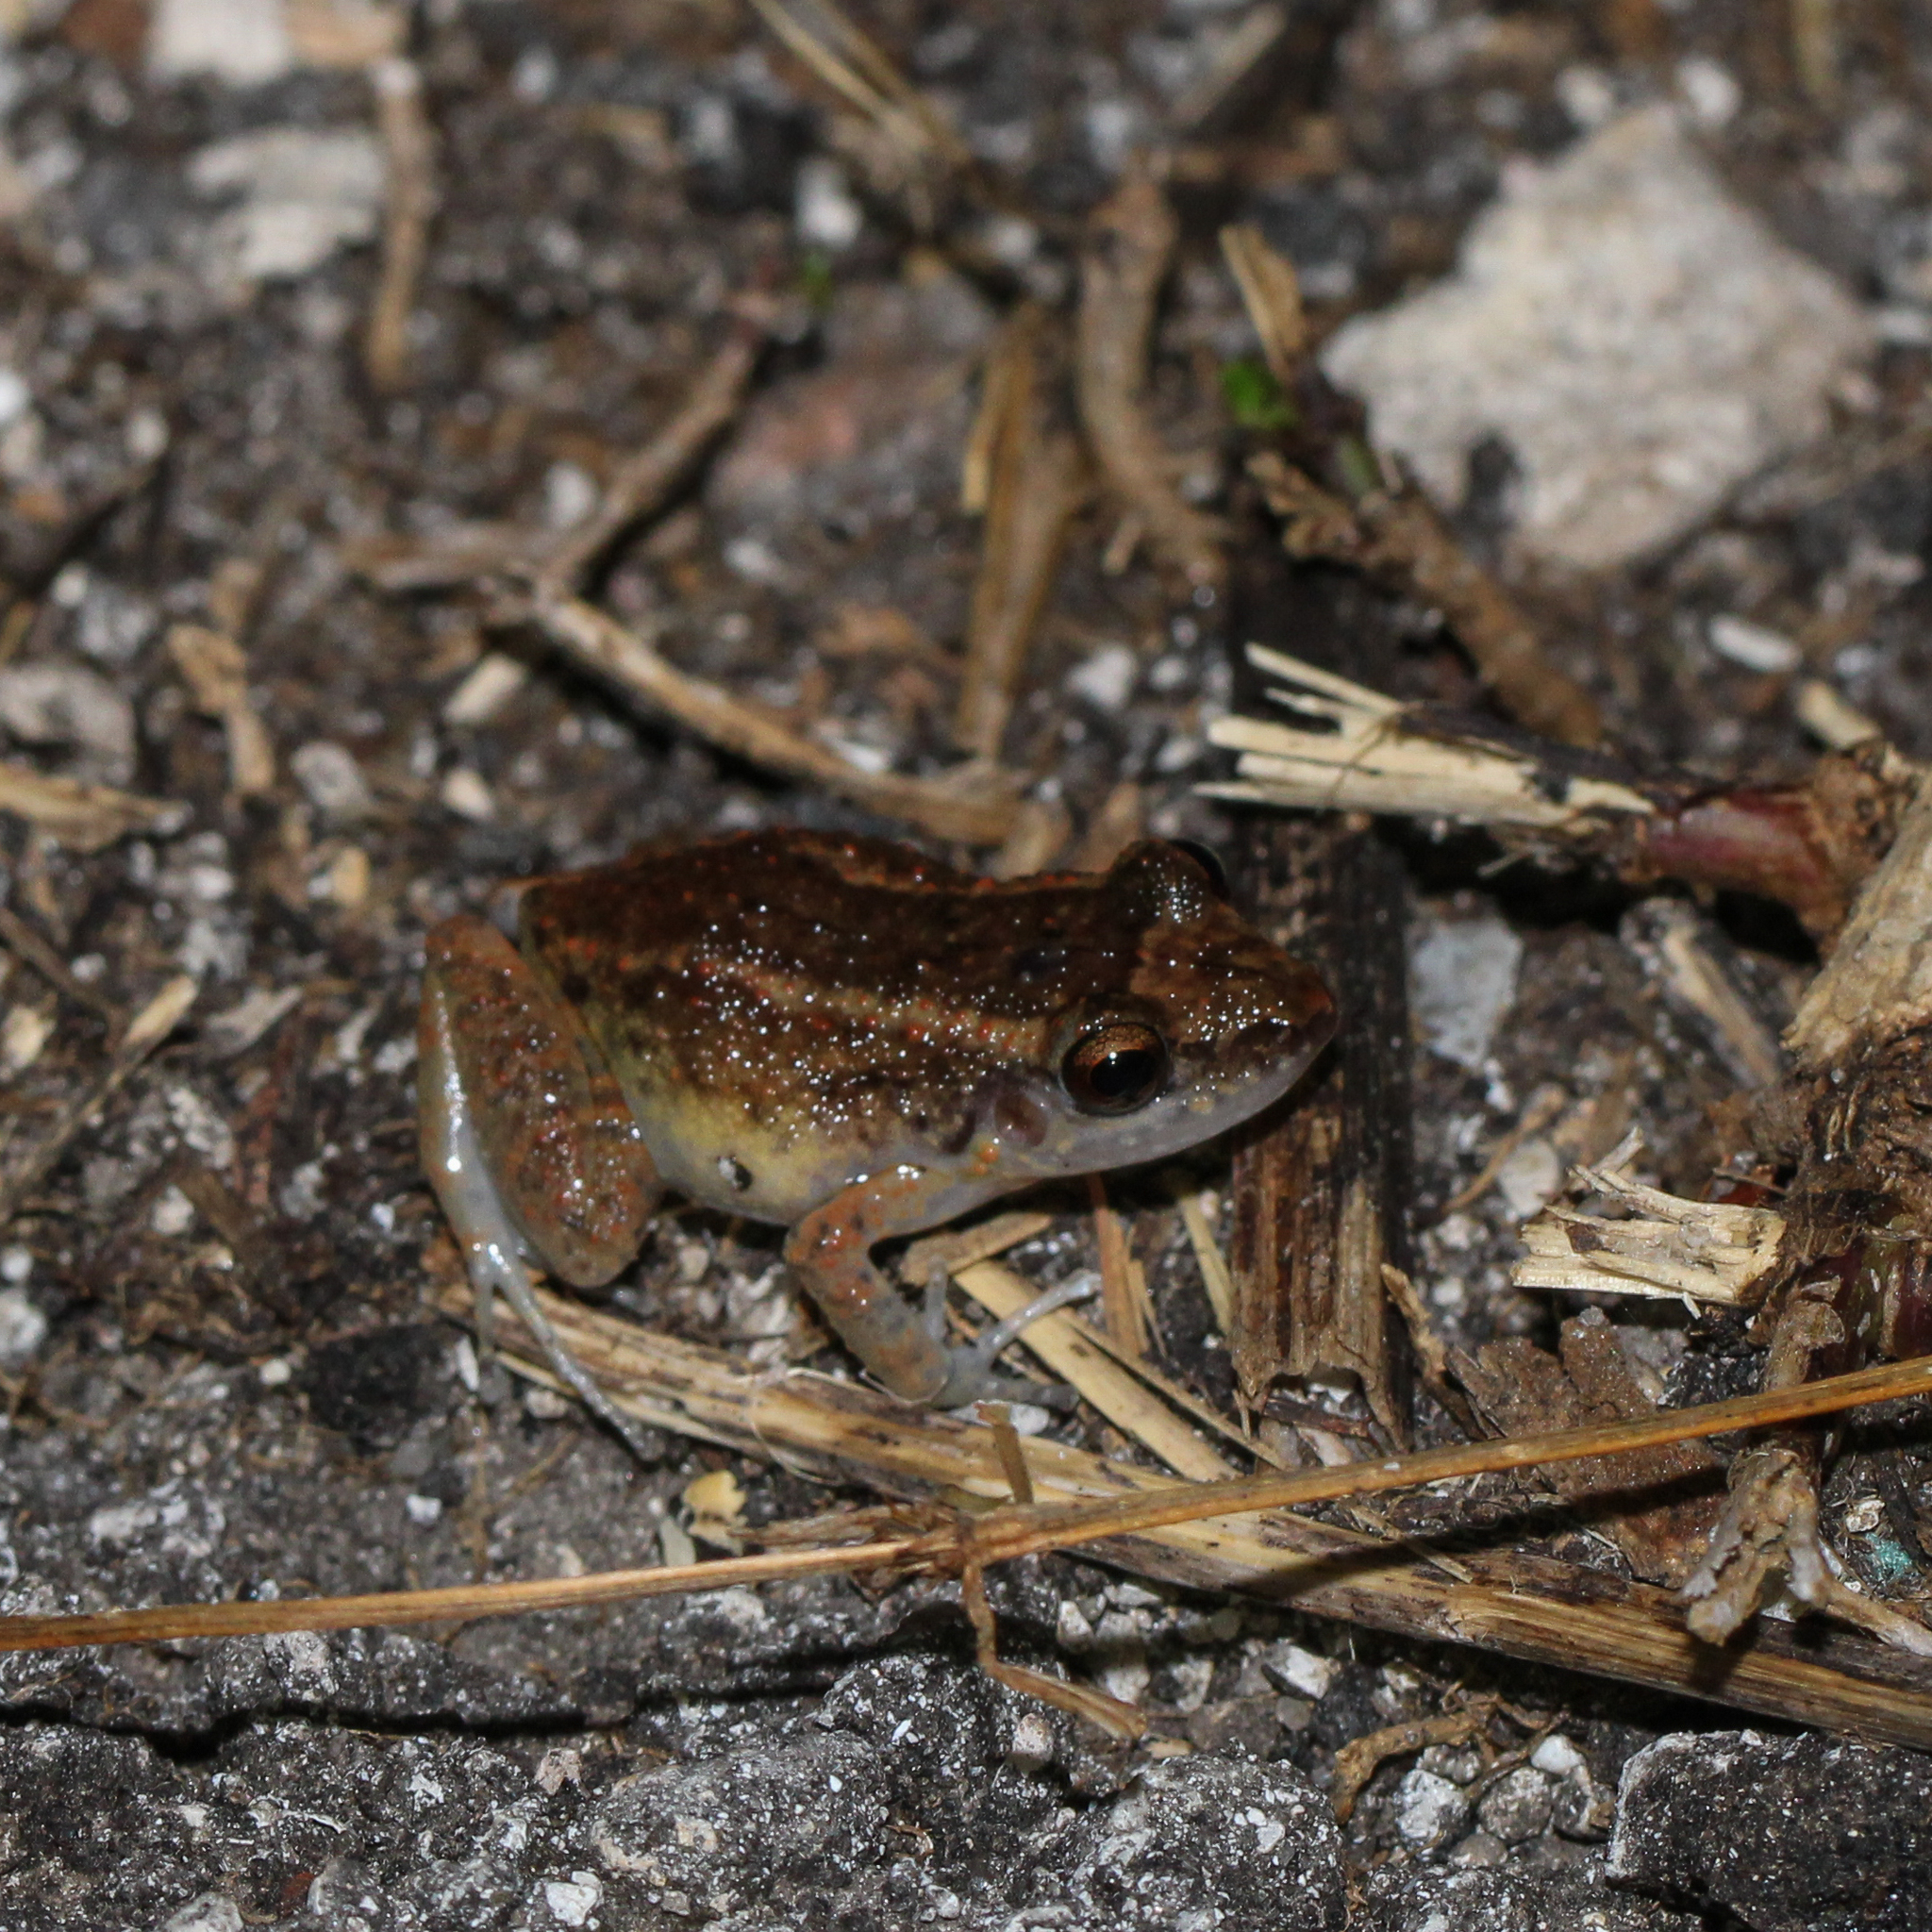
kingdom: Animalia
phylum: Chordata
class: Amphibia
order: Anura
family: Eleutherodactylidae
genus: Eleutherodactylus
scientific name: Eleutherodactylus planirostris
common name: Greenhouse frog
